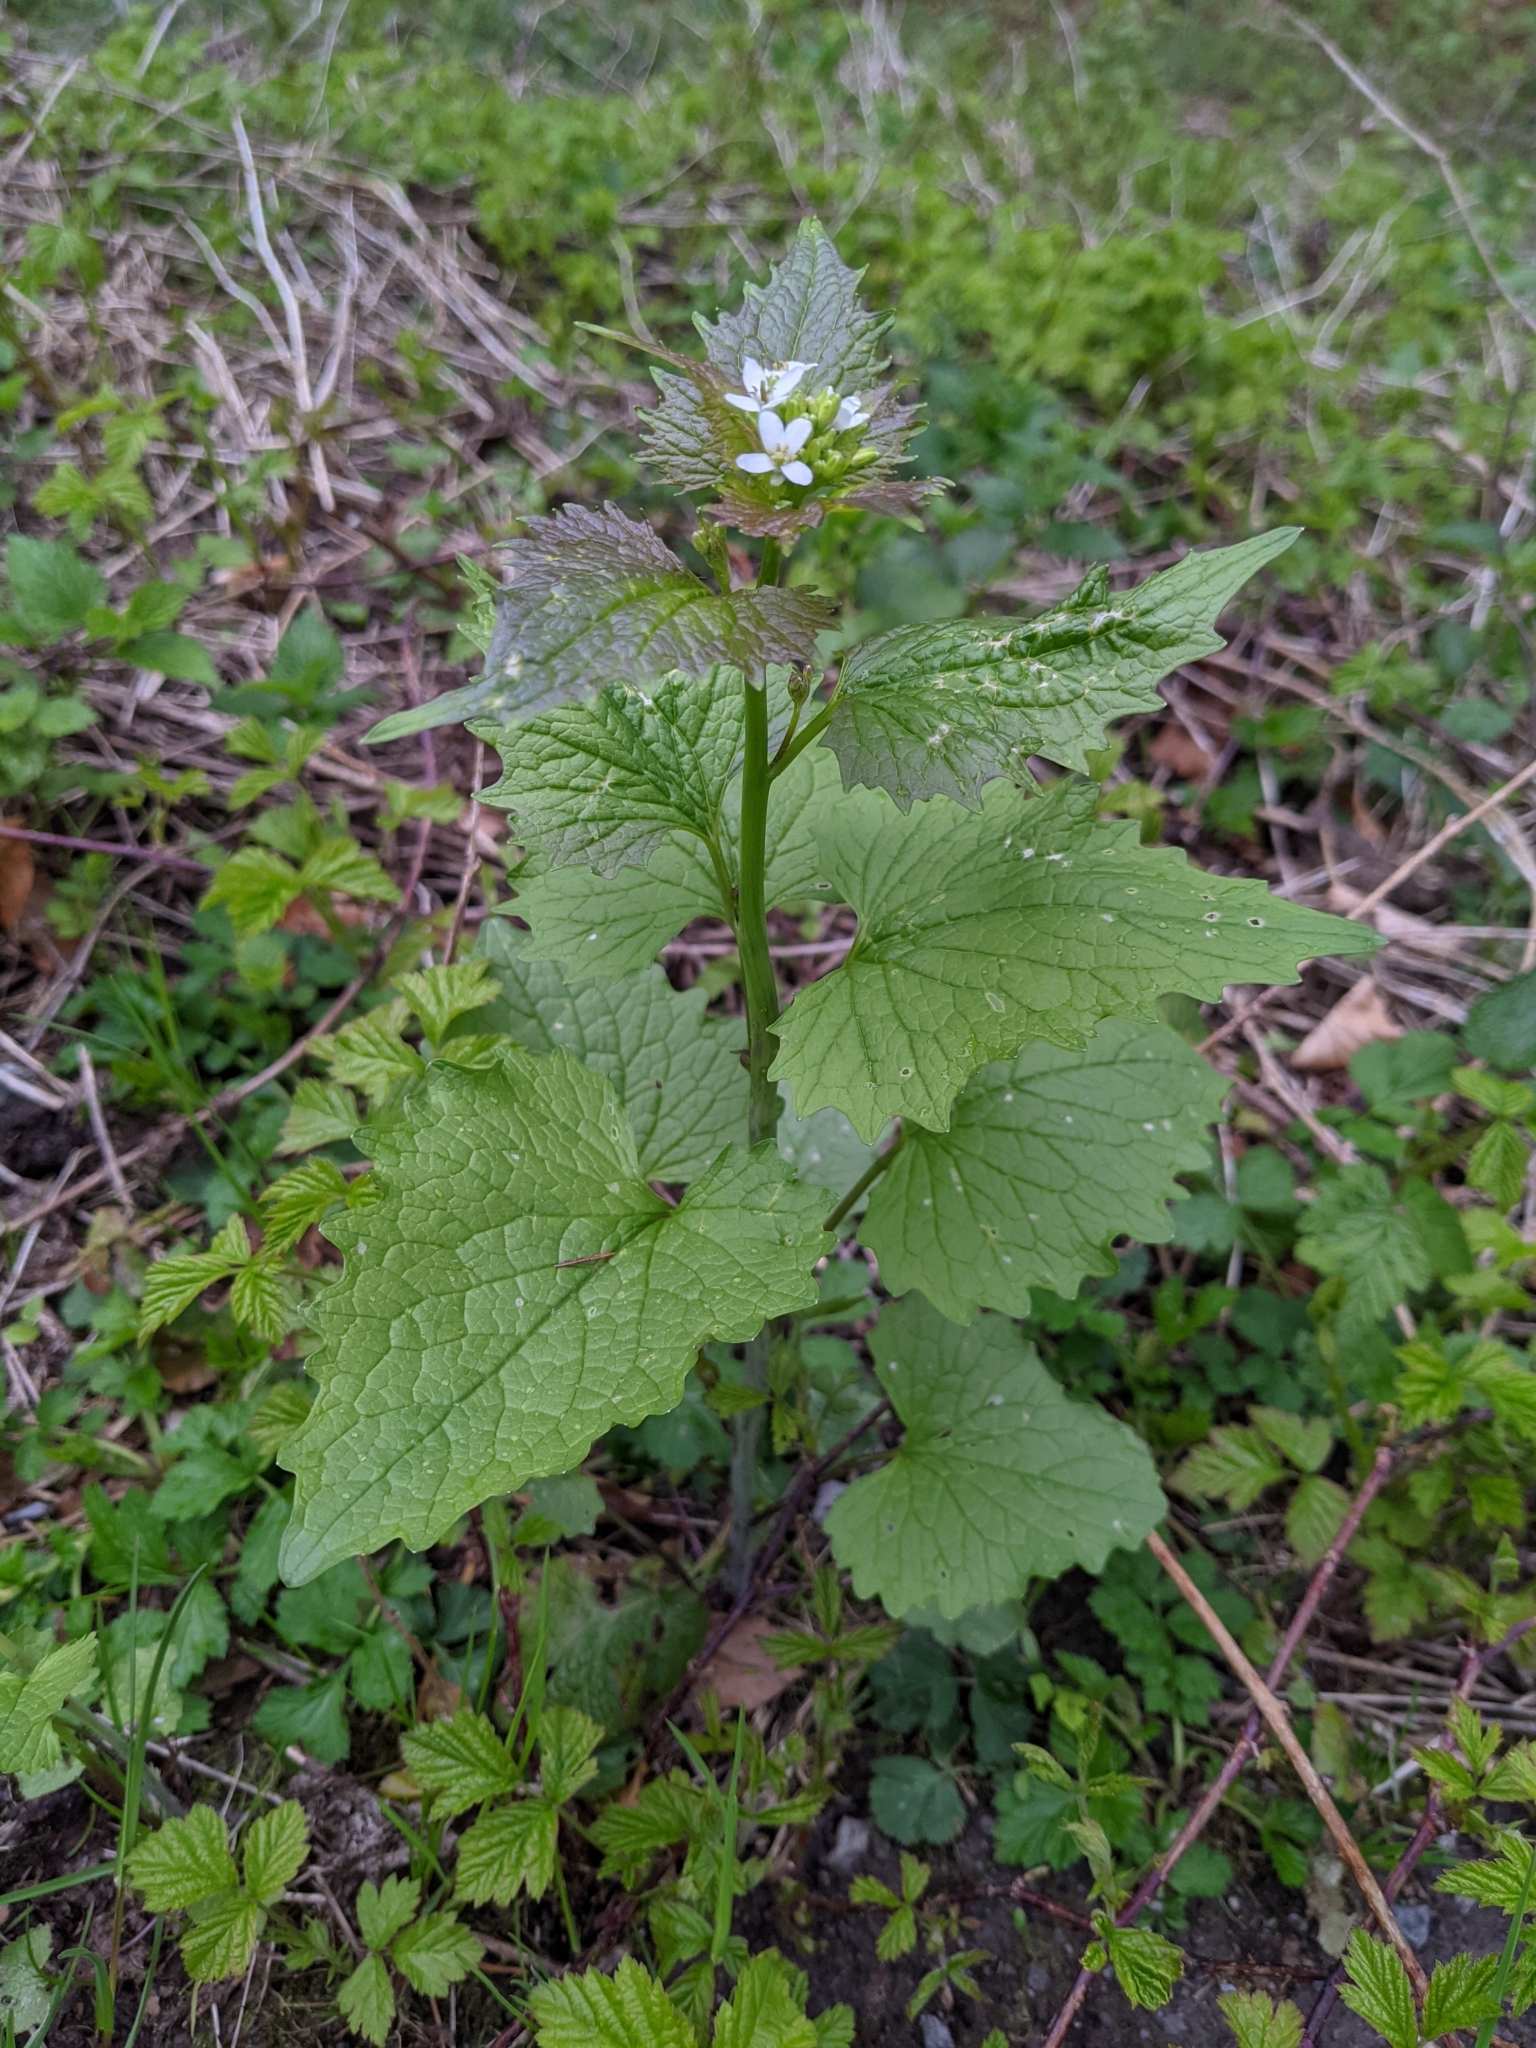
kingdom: Plantae
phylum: Tracheophyta
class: Magnoliopsida
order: Brassicales
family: Brassicaceae
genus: Alliaria
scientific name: Alliaria petiolata
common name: Garlic mustard
